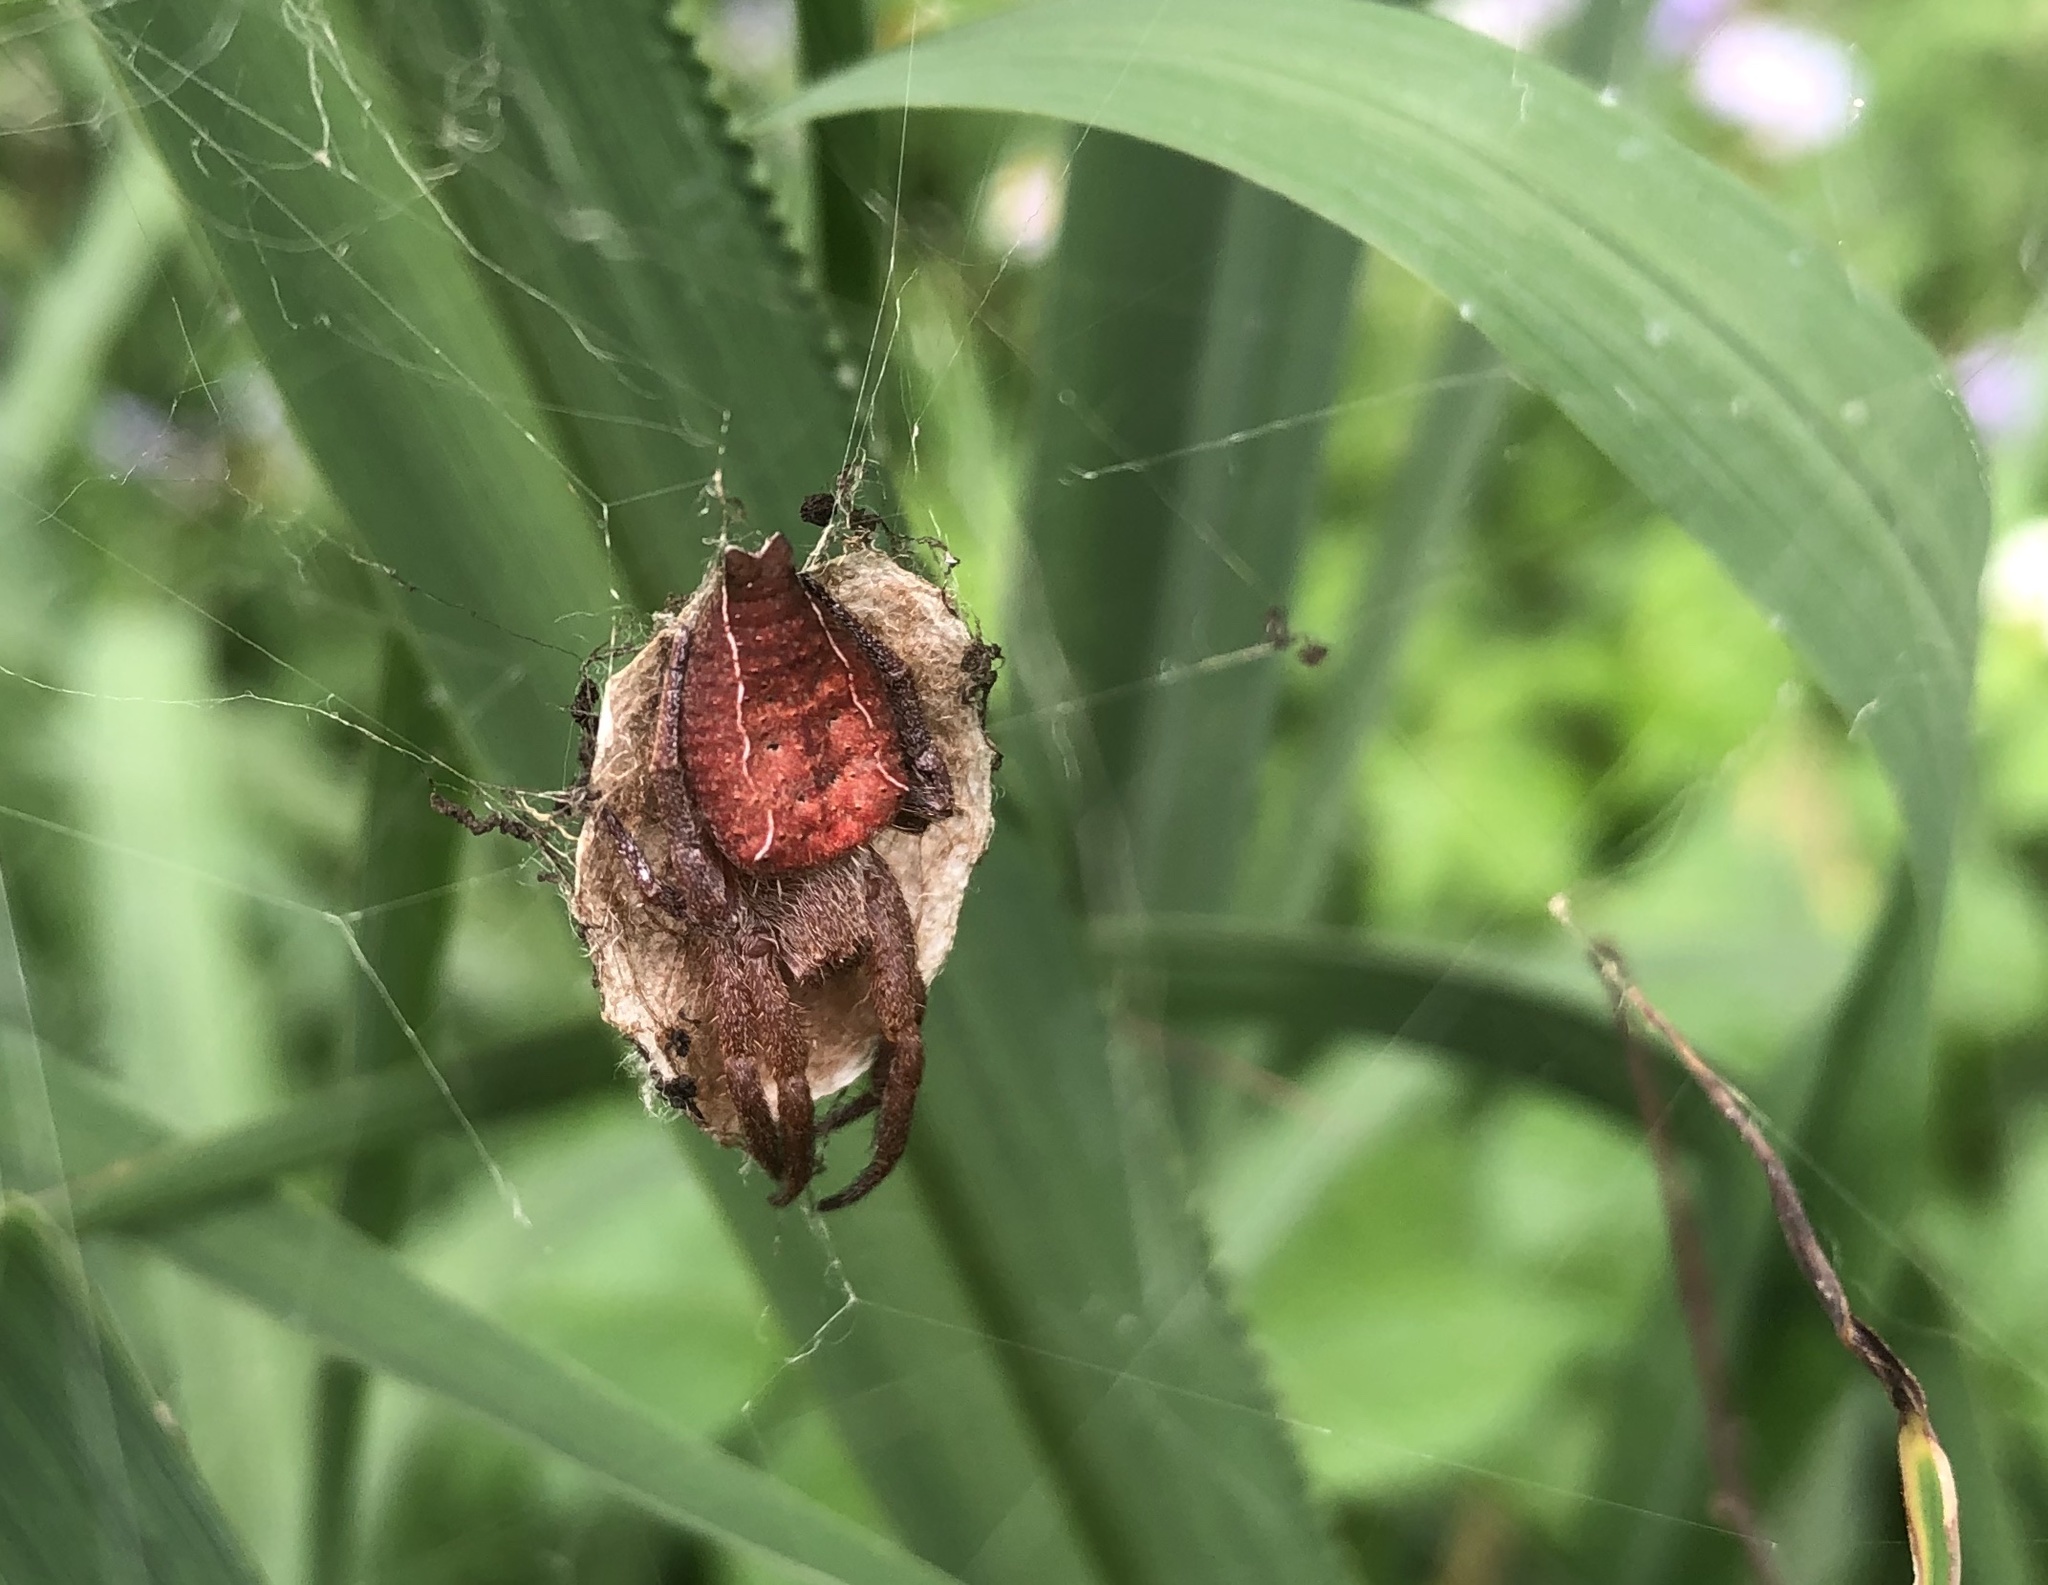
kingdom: Animalia
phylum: Arthropoda
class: Arachnida
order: Araneae
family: Araneidae
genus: Cyrtophora
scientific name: Cyrtophora exanthematica
